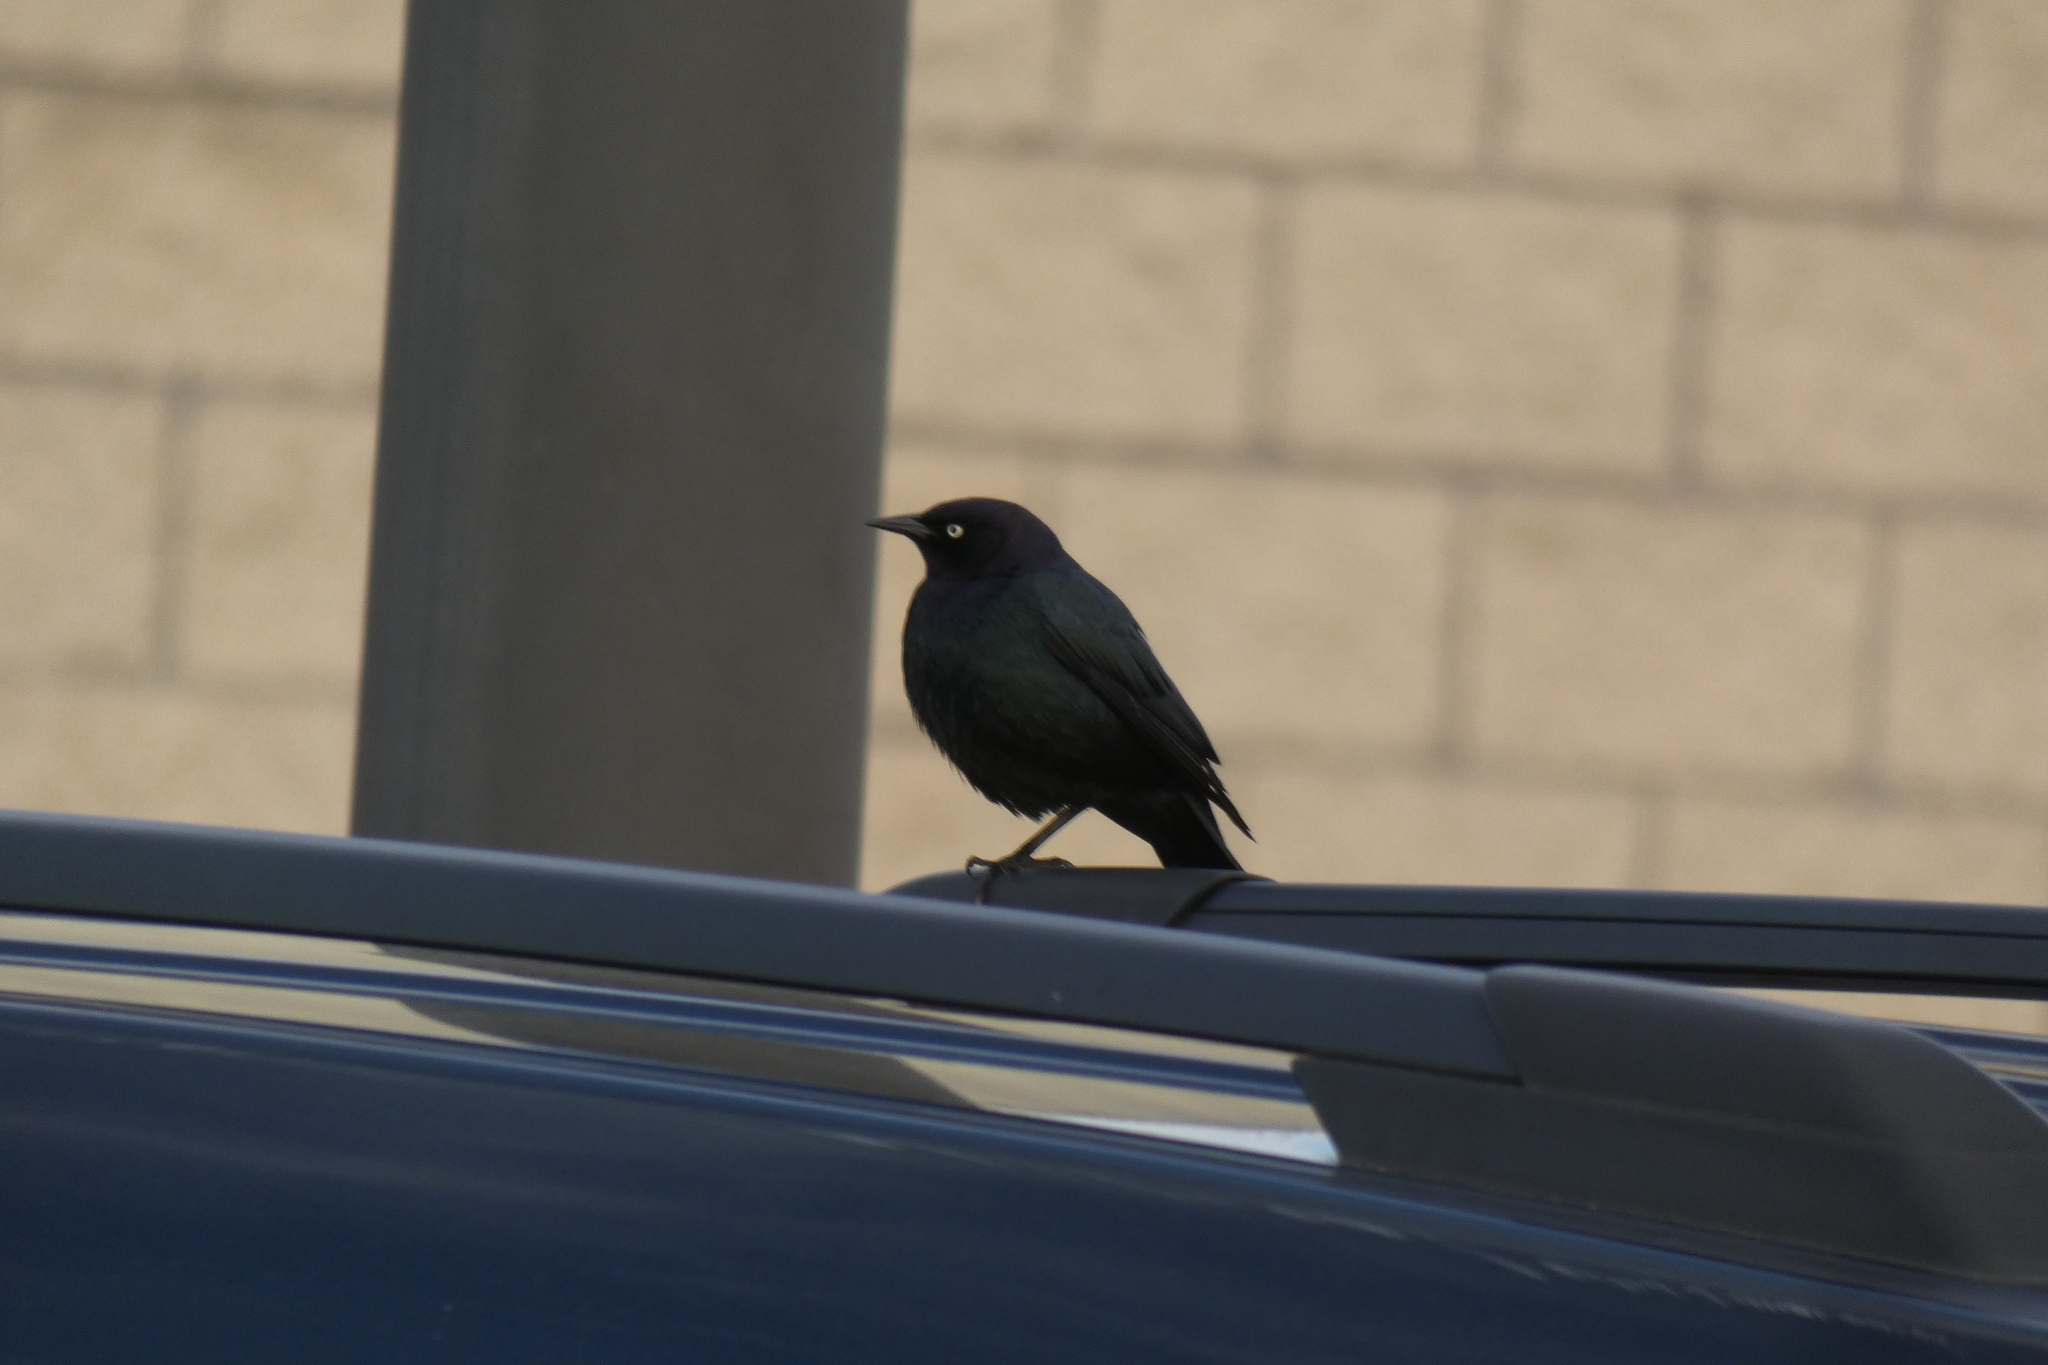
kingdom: Animalia
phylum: Chordata
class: Aves
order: Passeriformes
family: Icteridae
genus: Euphagus
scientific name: Euphagus cyanocephalus
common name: Brewer's blackbird
